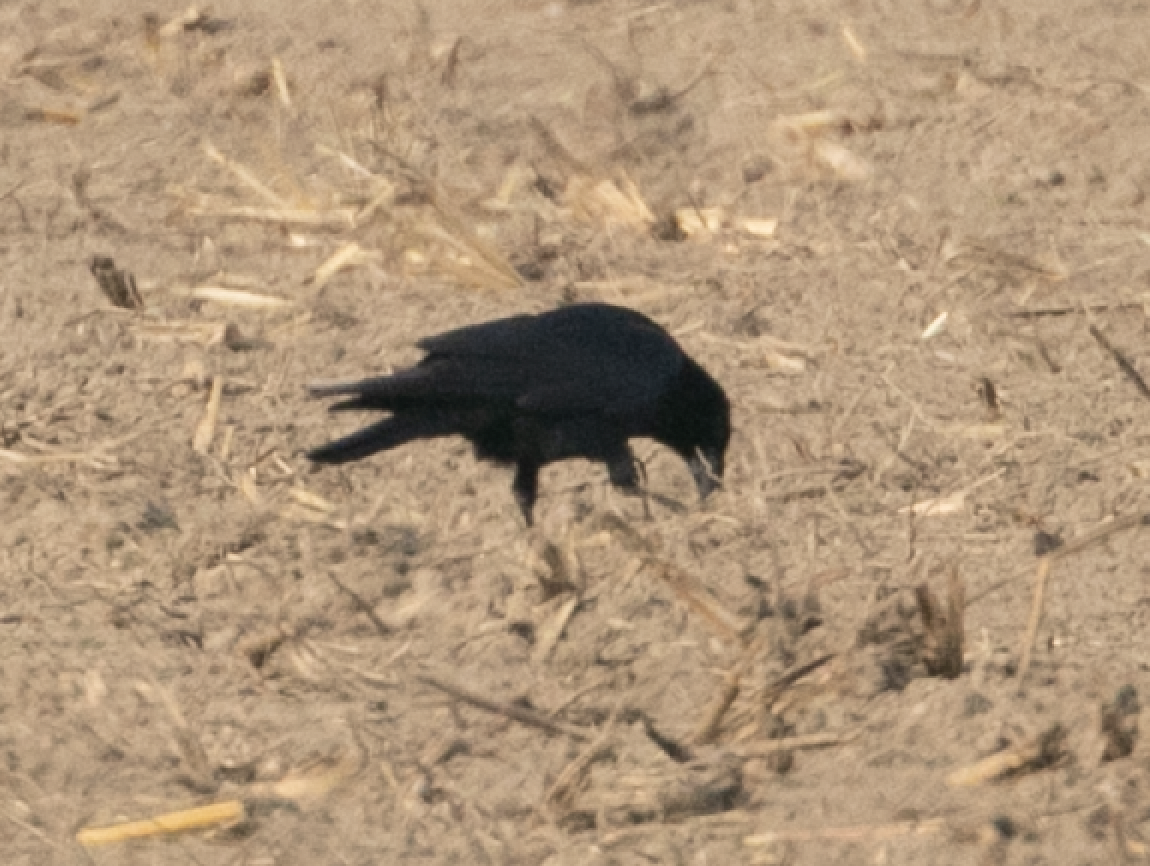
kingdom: Animalia
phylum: Chordata
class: Aves
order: Passeriformes
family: Corvidae
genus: Corvus
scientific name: Corvus frugilegus
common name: Rook
